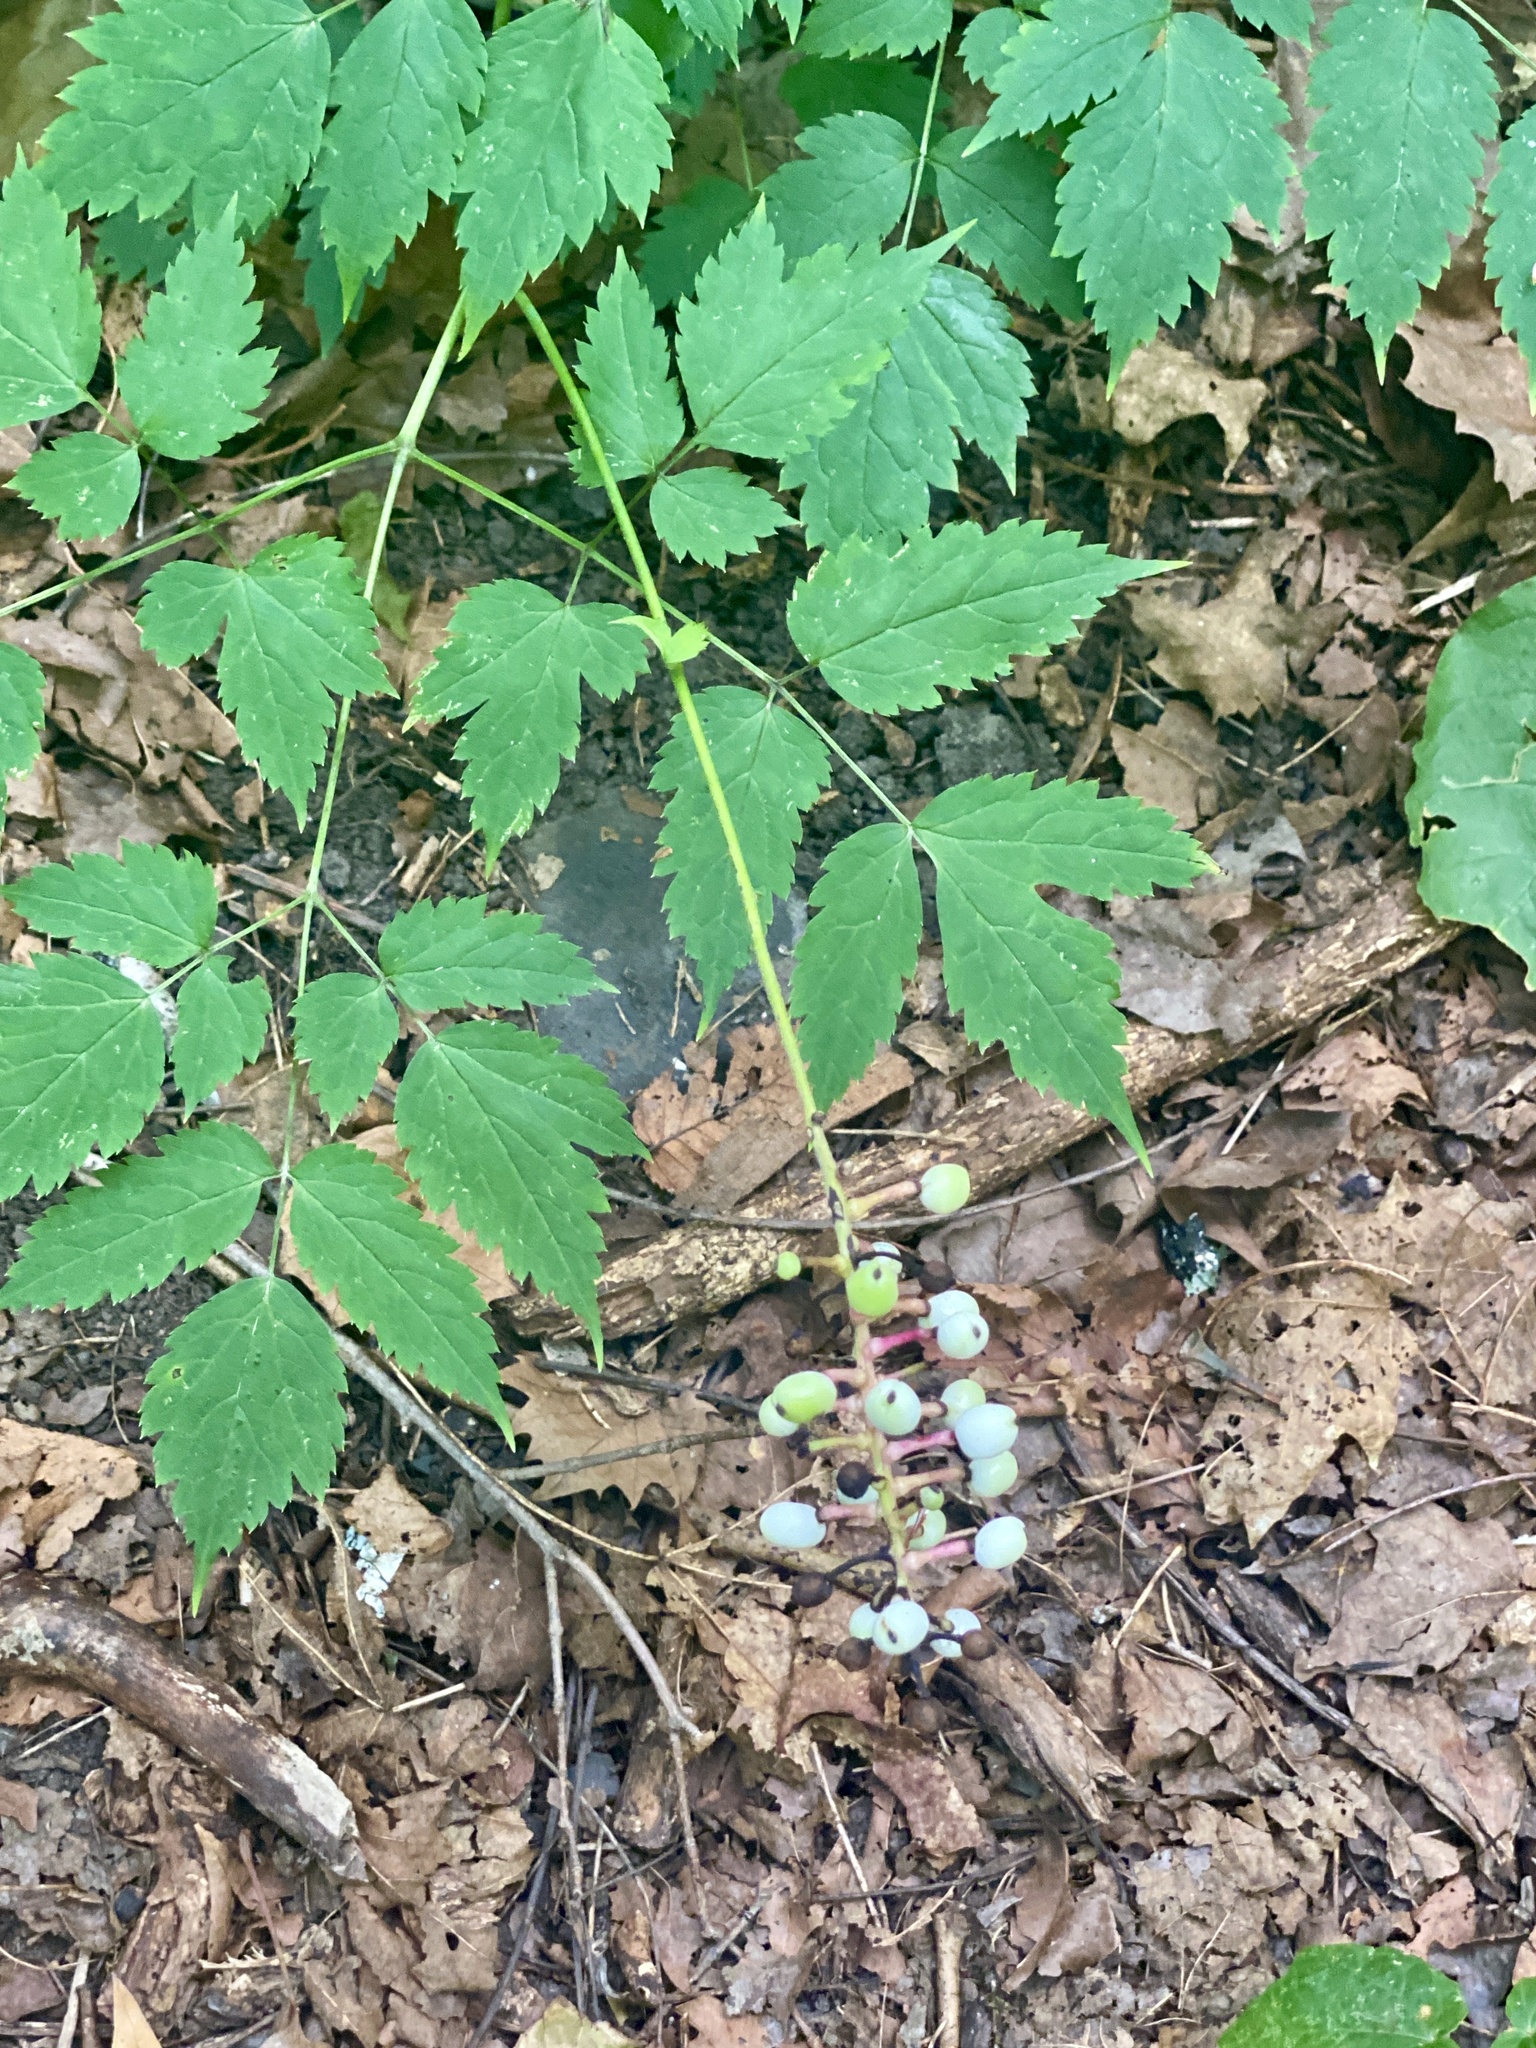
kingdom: Plantae
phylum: Tracheophyta
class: Magnoliopsida
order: Ranunculales
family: Ranunculaceae
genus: Actaea
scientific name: Actaea pachypoda
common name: Doll's-eyes
